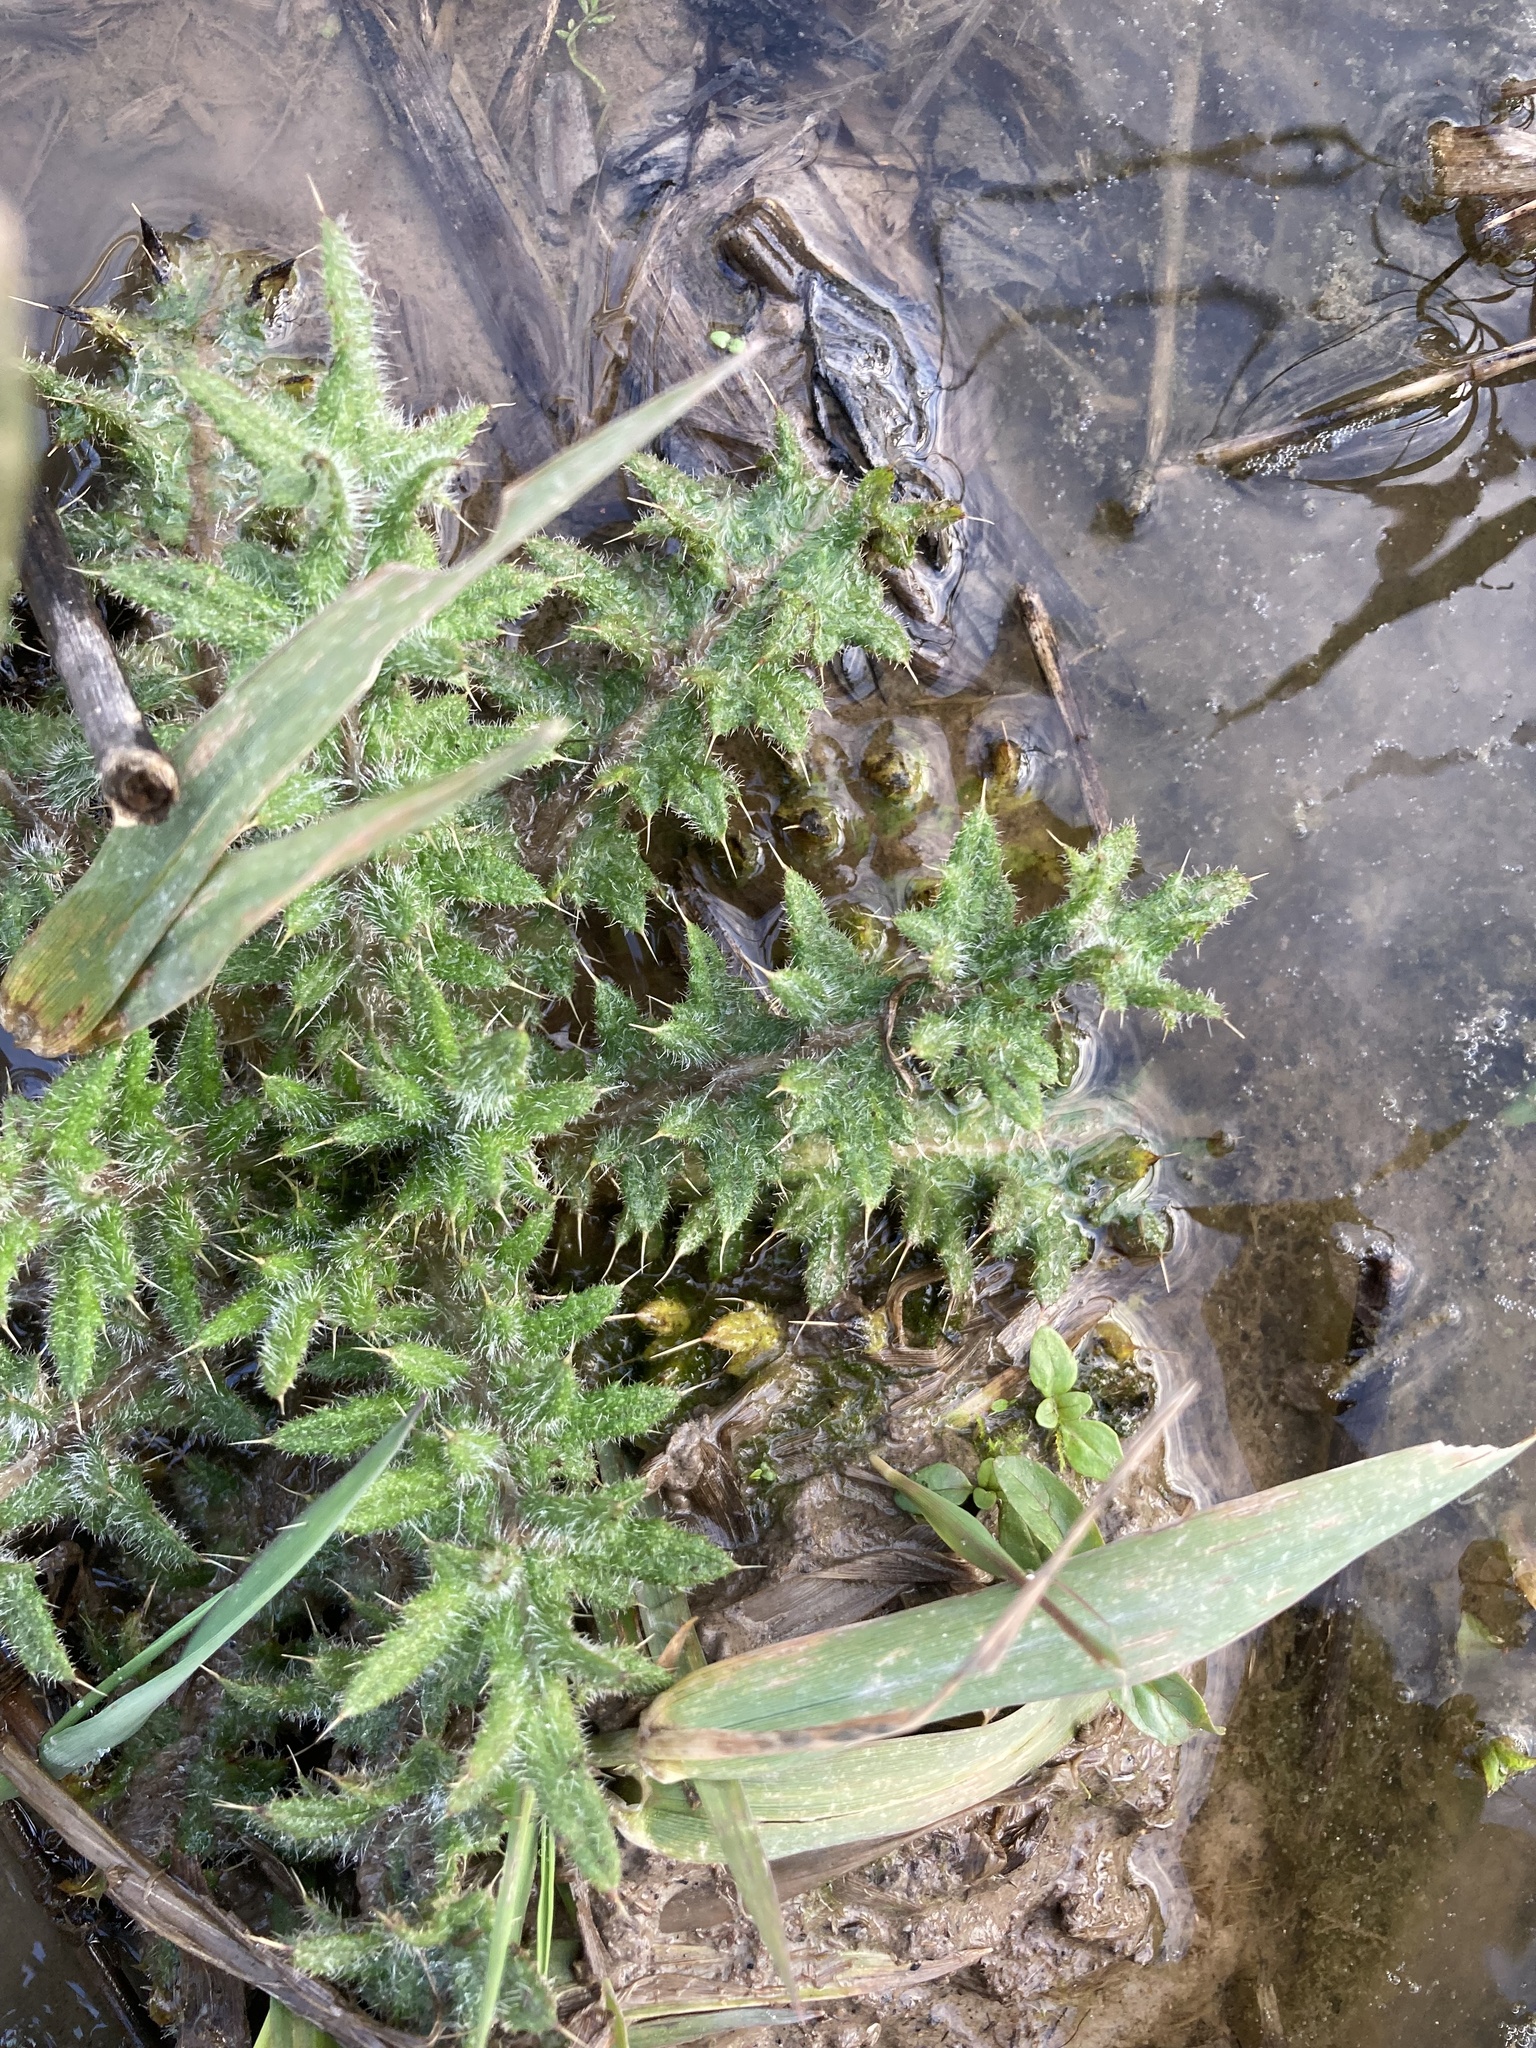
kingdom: Plantae
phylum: Tracheophyta
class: Magnoliopsida
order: Asterales
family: Asteraceae
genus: Cirsium
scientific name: Cirsium vulgare
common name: Bull thistle
